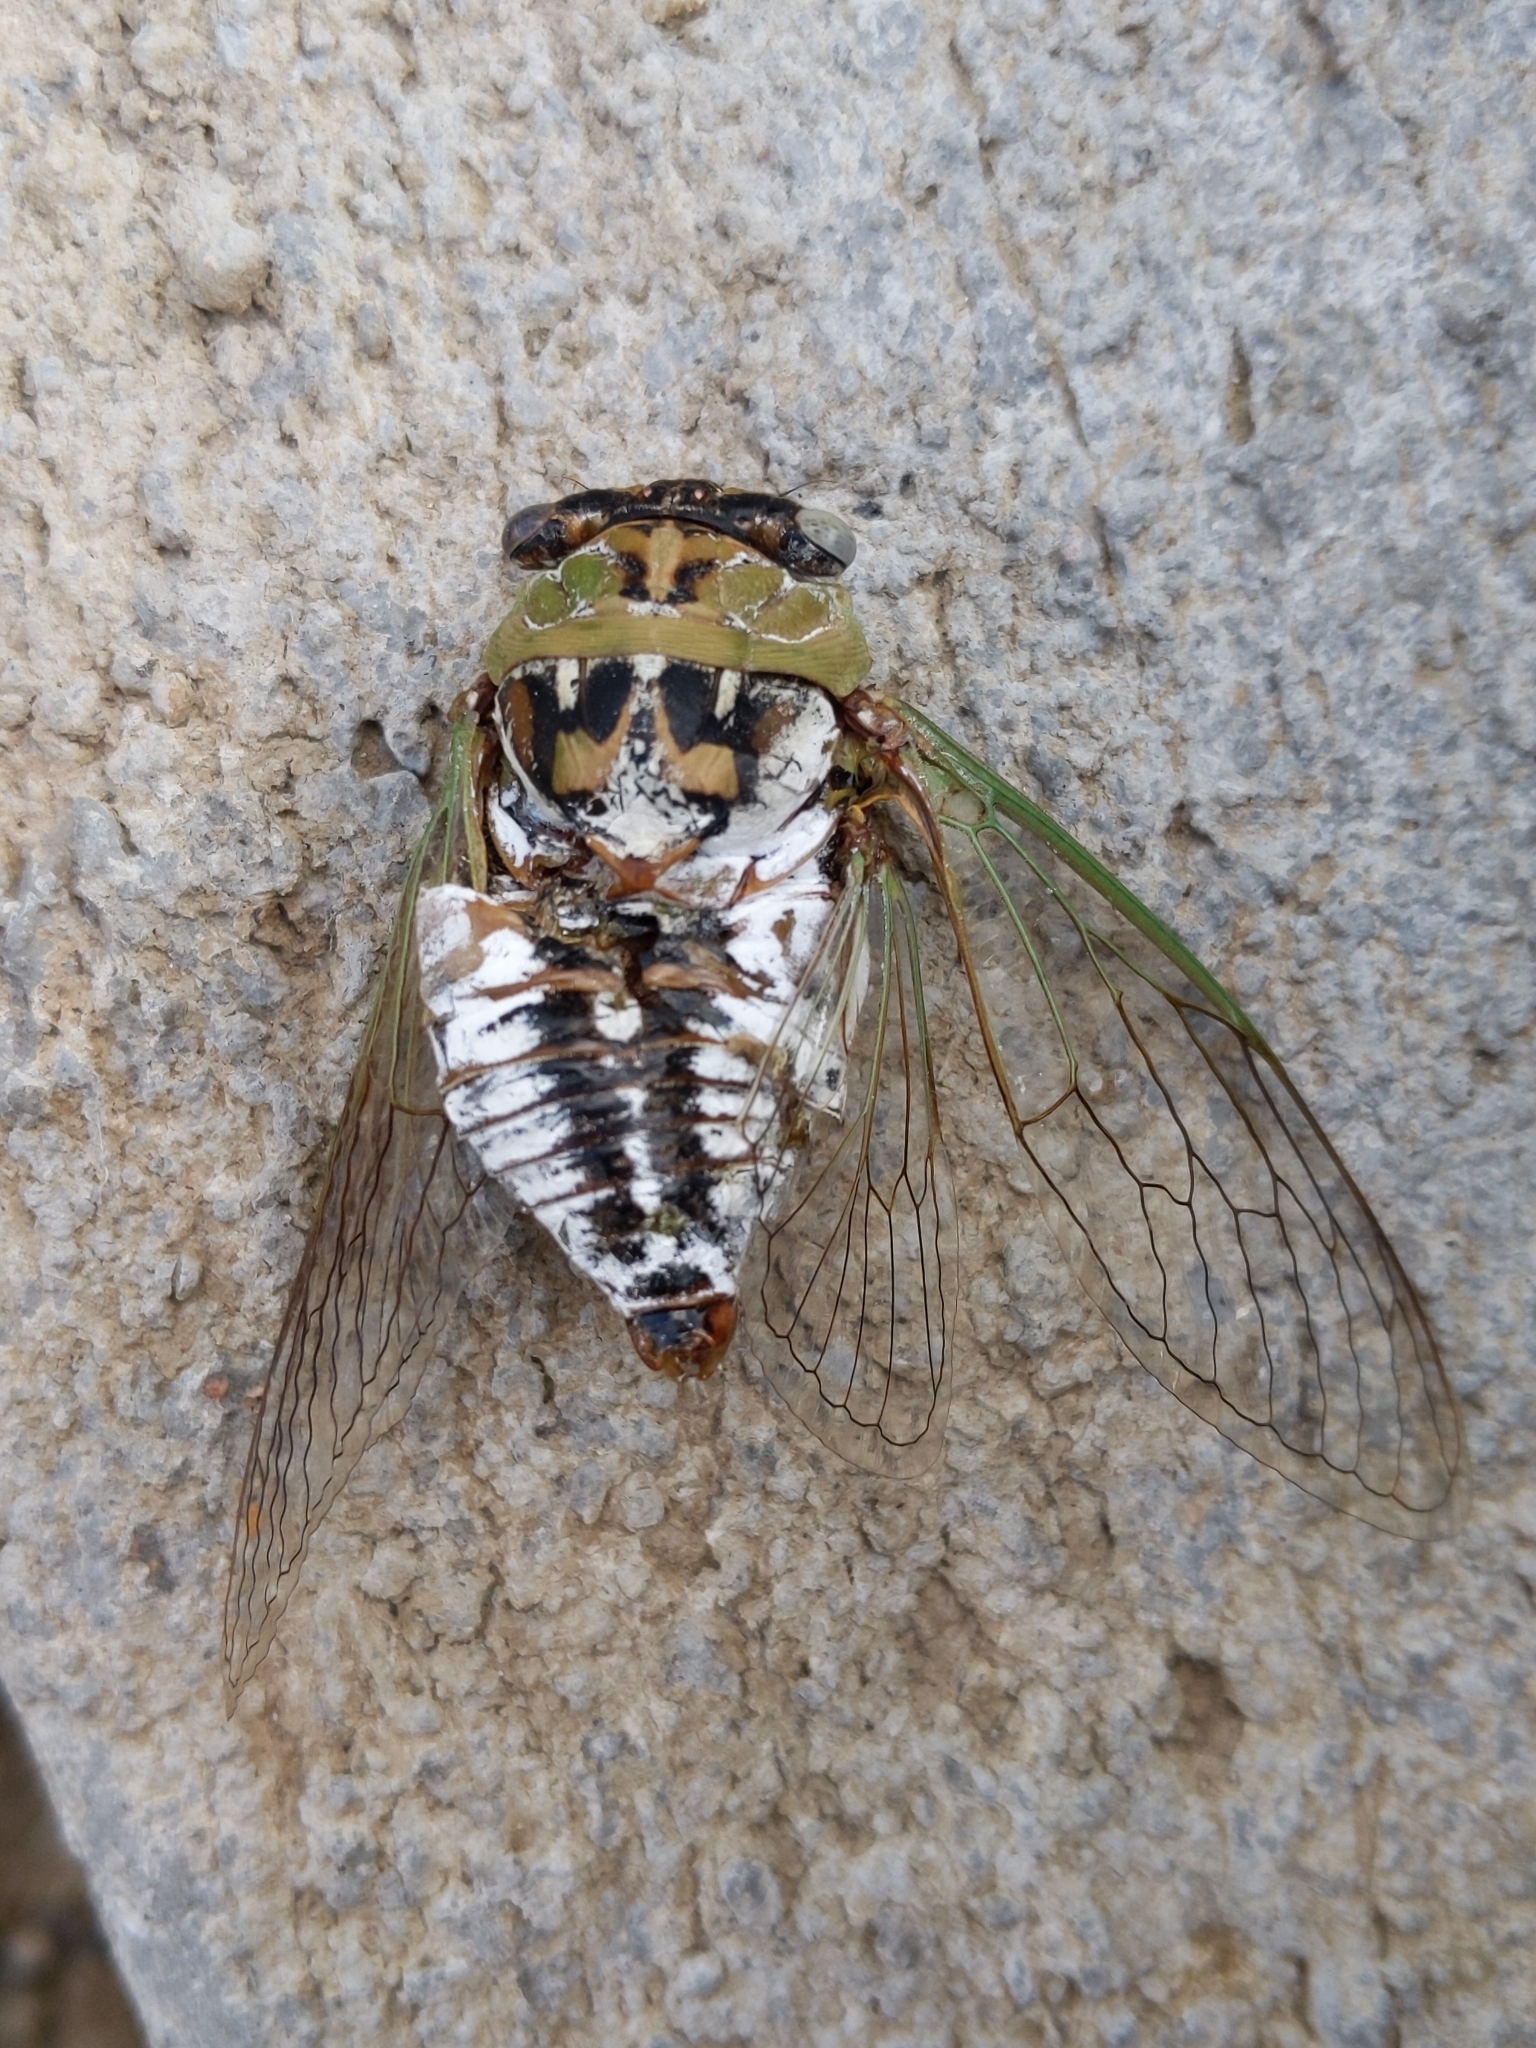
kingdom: Animalia
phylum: Arthropoda
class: Insecta
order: Hemiptera
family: Cicadidae
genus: Megatibicen
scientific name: Megatibicen dealbatus
